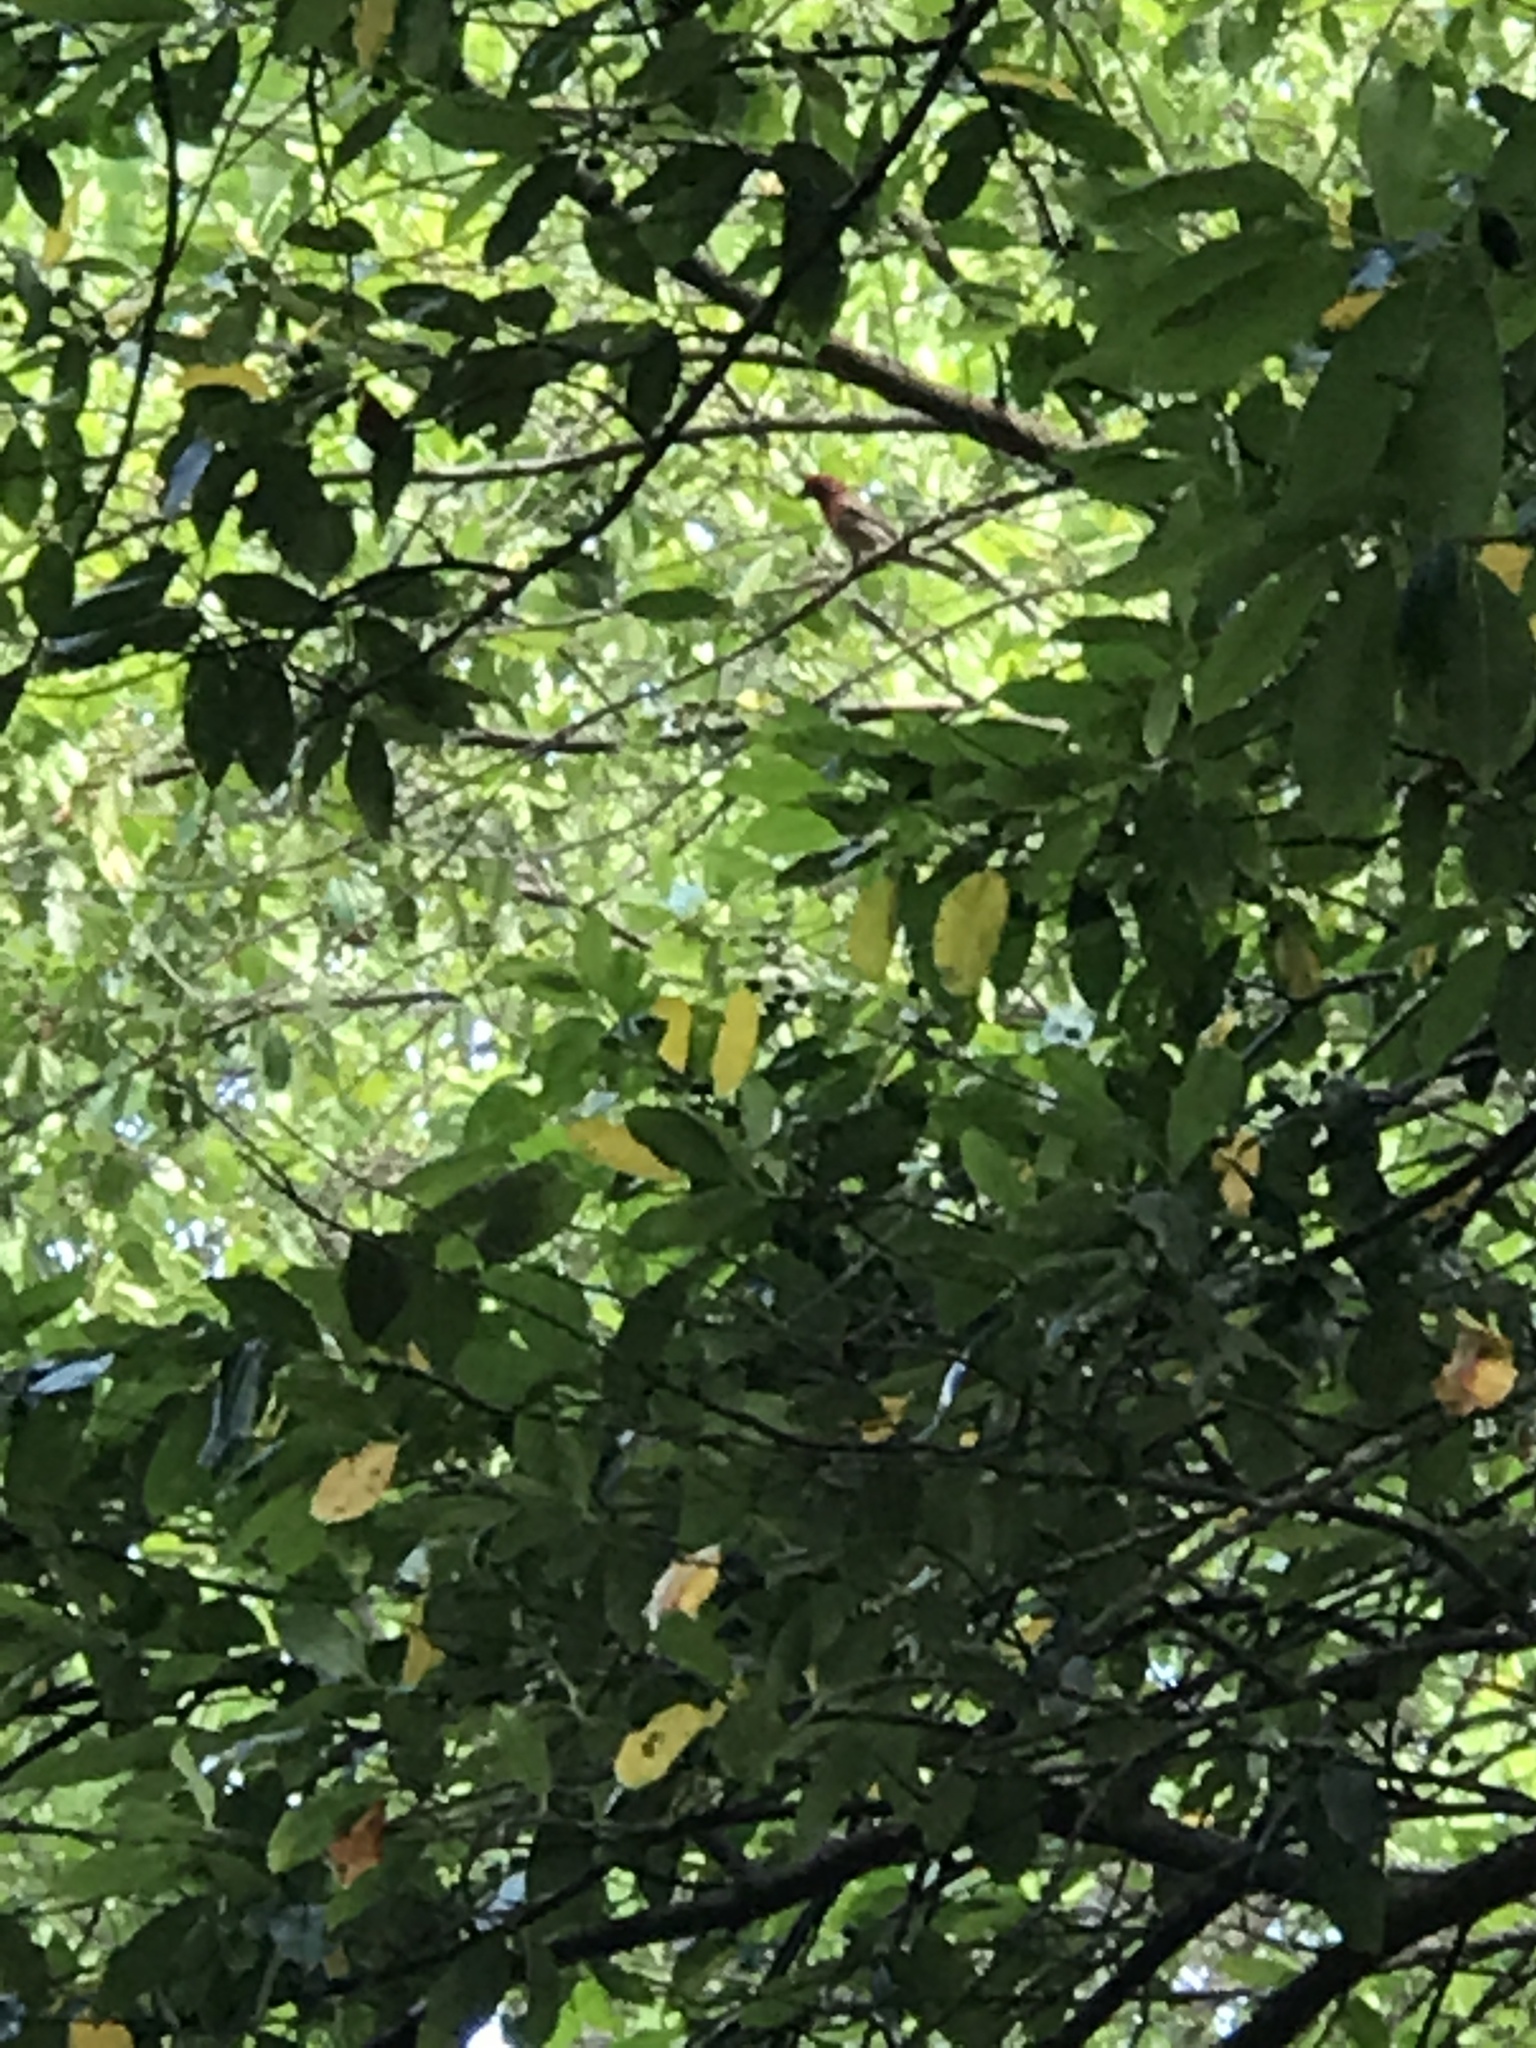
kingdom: Animalia
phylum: Chordata
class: Aves
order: Passeriformes
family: Fringillidae
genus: Haemorhous
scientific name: Haemorhous mexicanus
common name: House finch
